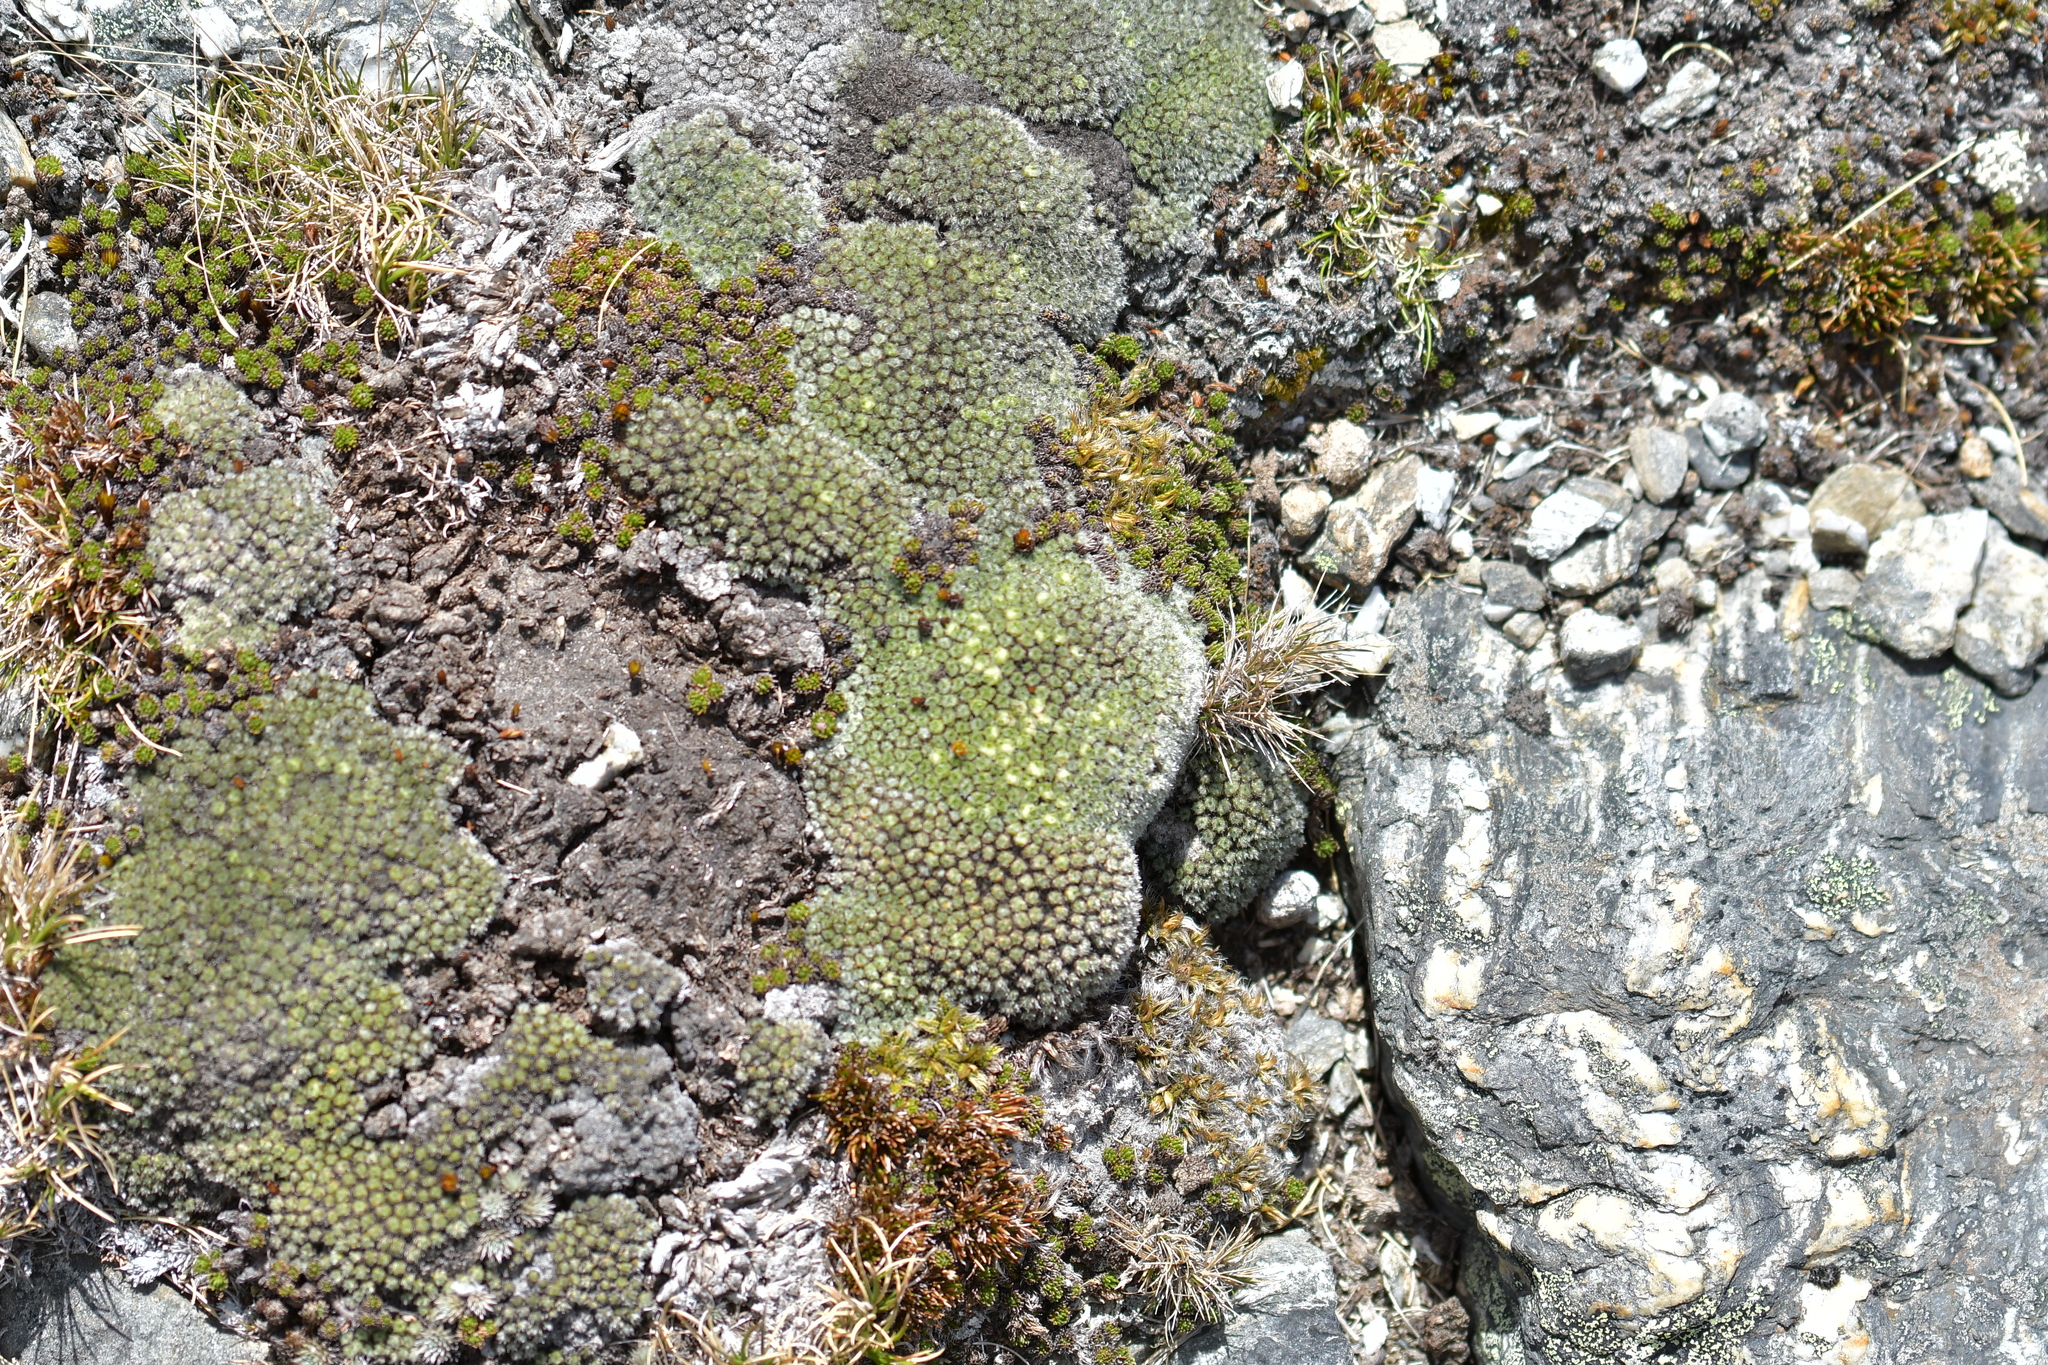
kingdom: Plantae
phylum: Tracheophyta
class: Magnoliopsida
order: Lamiales
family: Plantaginaceae
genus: Veronica
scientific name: Veronica thomsonii
